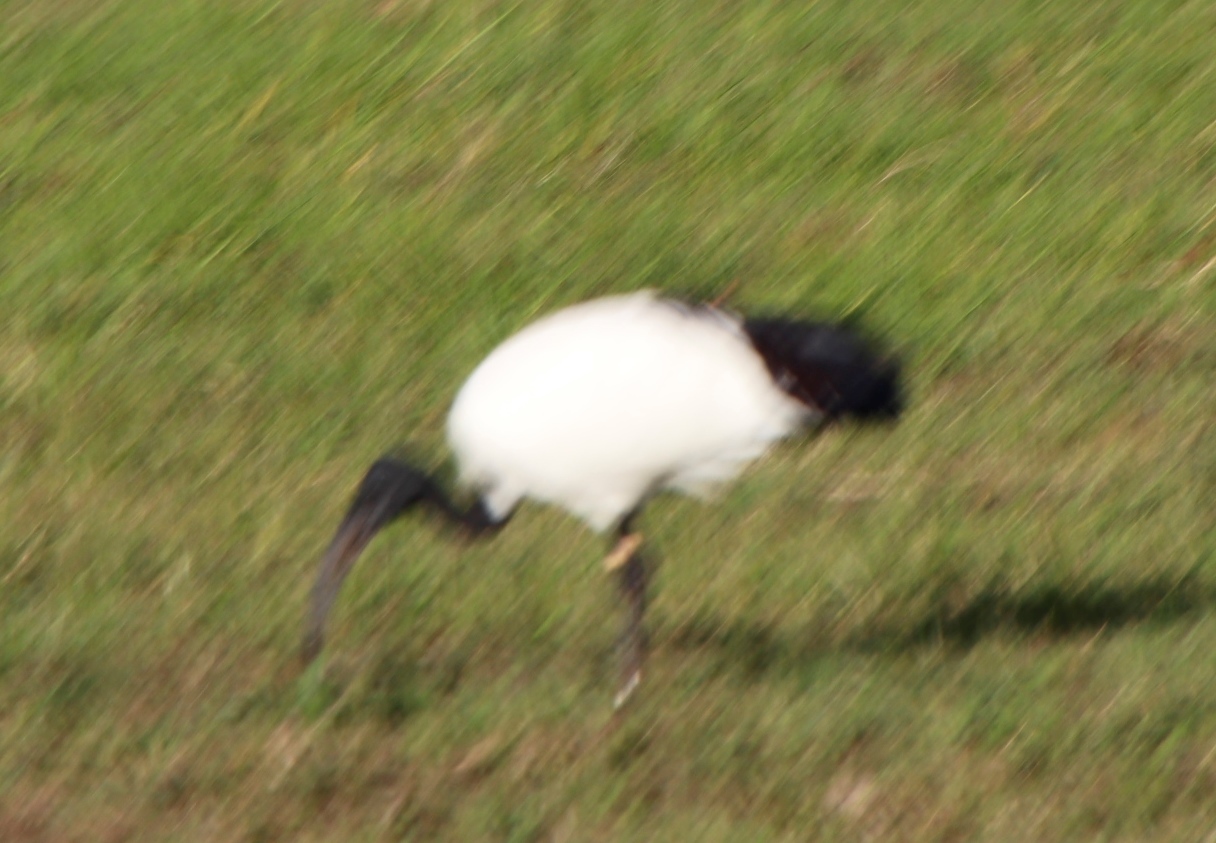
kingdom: Animalia
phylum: Chordata
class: Aves
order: Pelecaniformes
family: Threskiornithidae
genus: Threskiornis
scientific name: Threskiornis aethiopicus
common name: Sacred ibis
